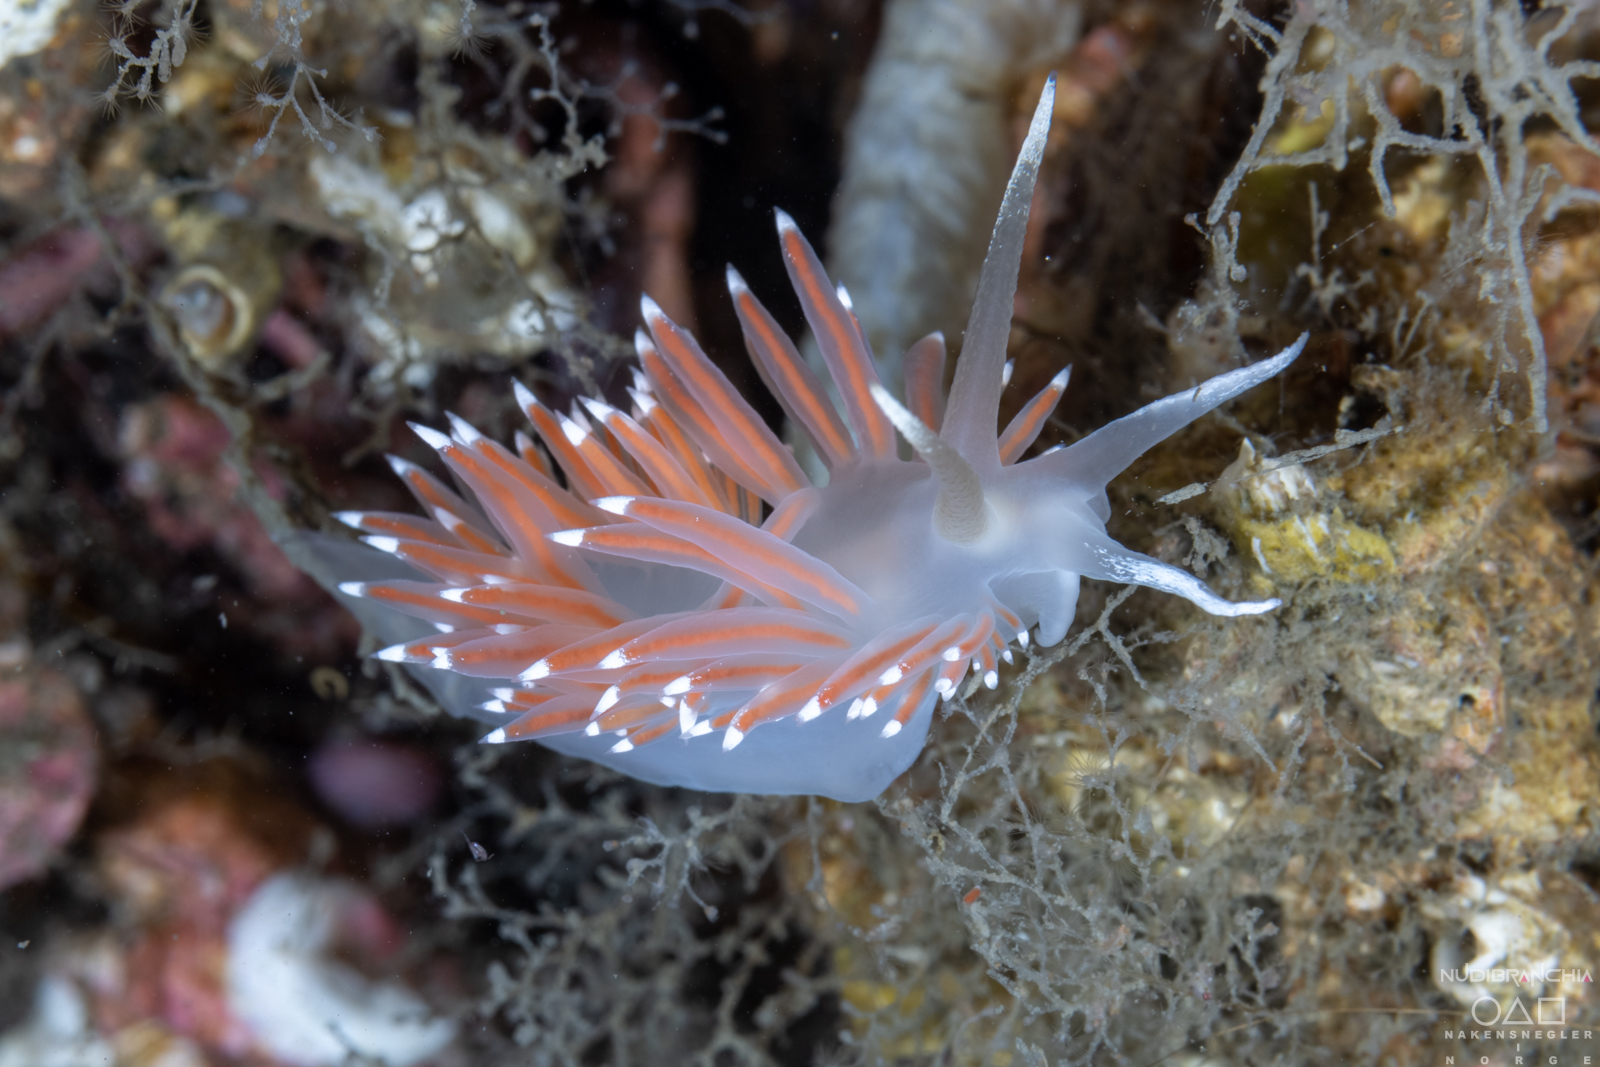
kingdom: Animalia
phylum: Mollusca
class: Gastropoda
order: Nudibranchia
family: Coryphellidae
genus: Coryphella
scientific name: Coryphella browni
